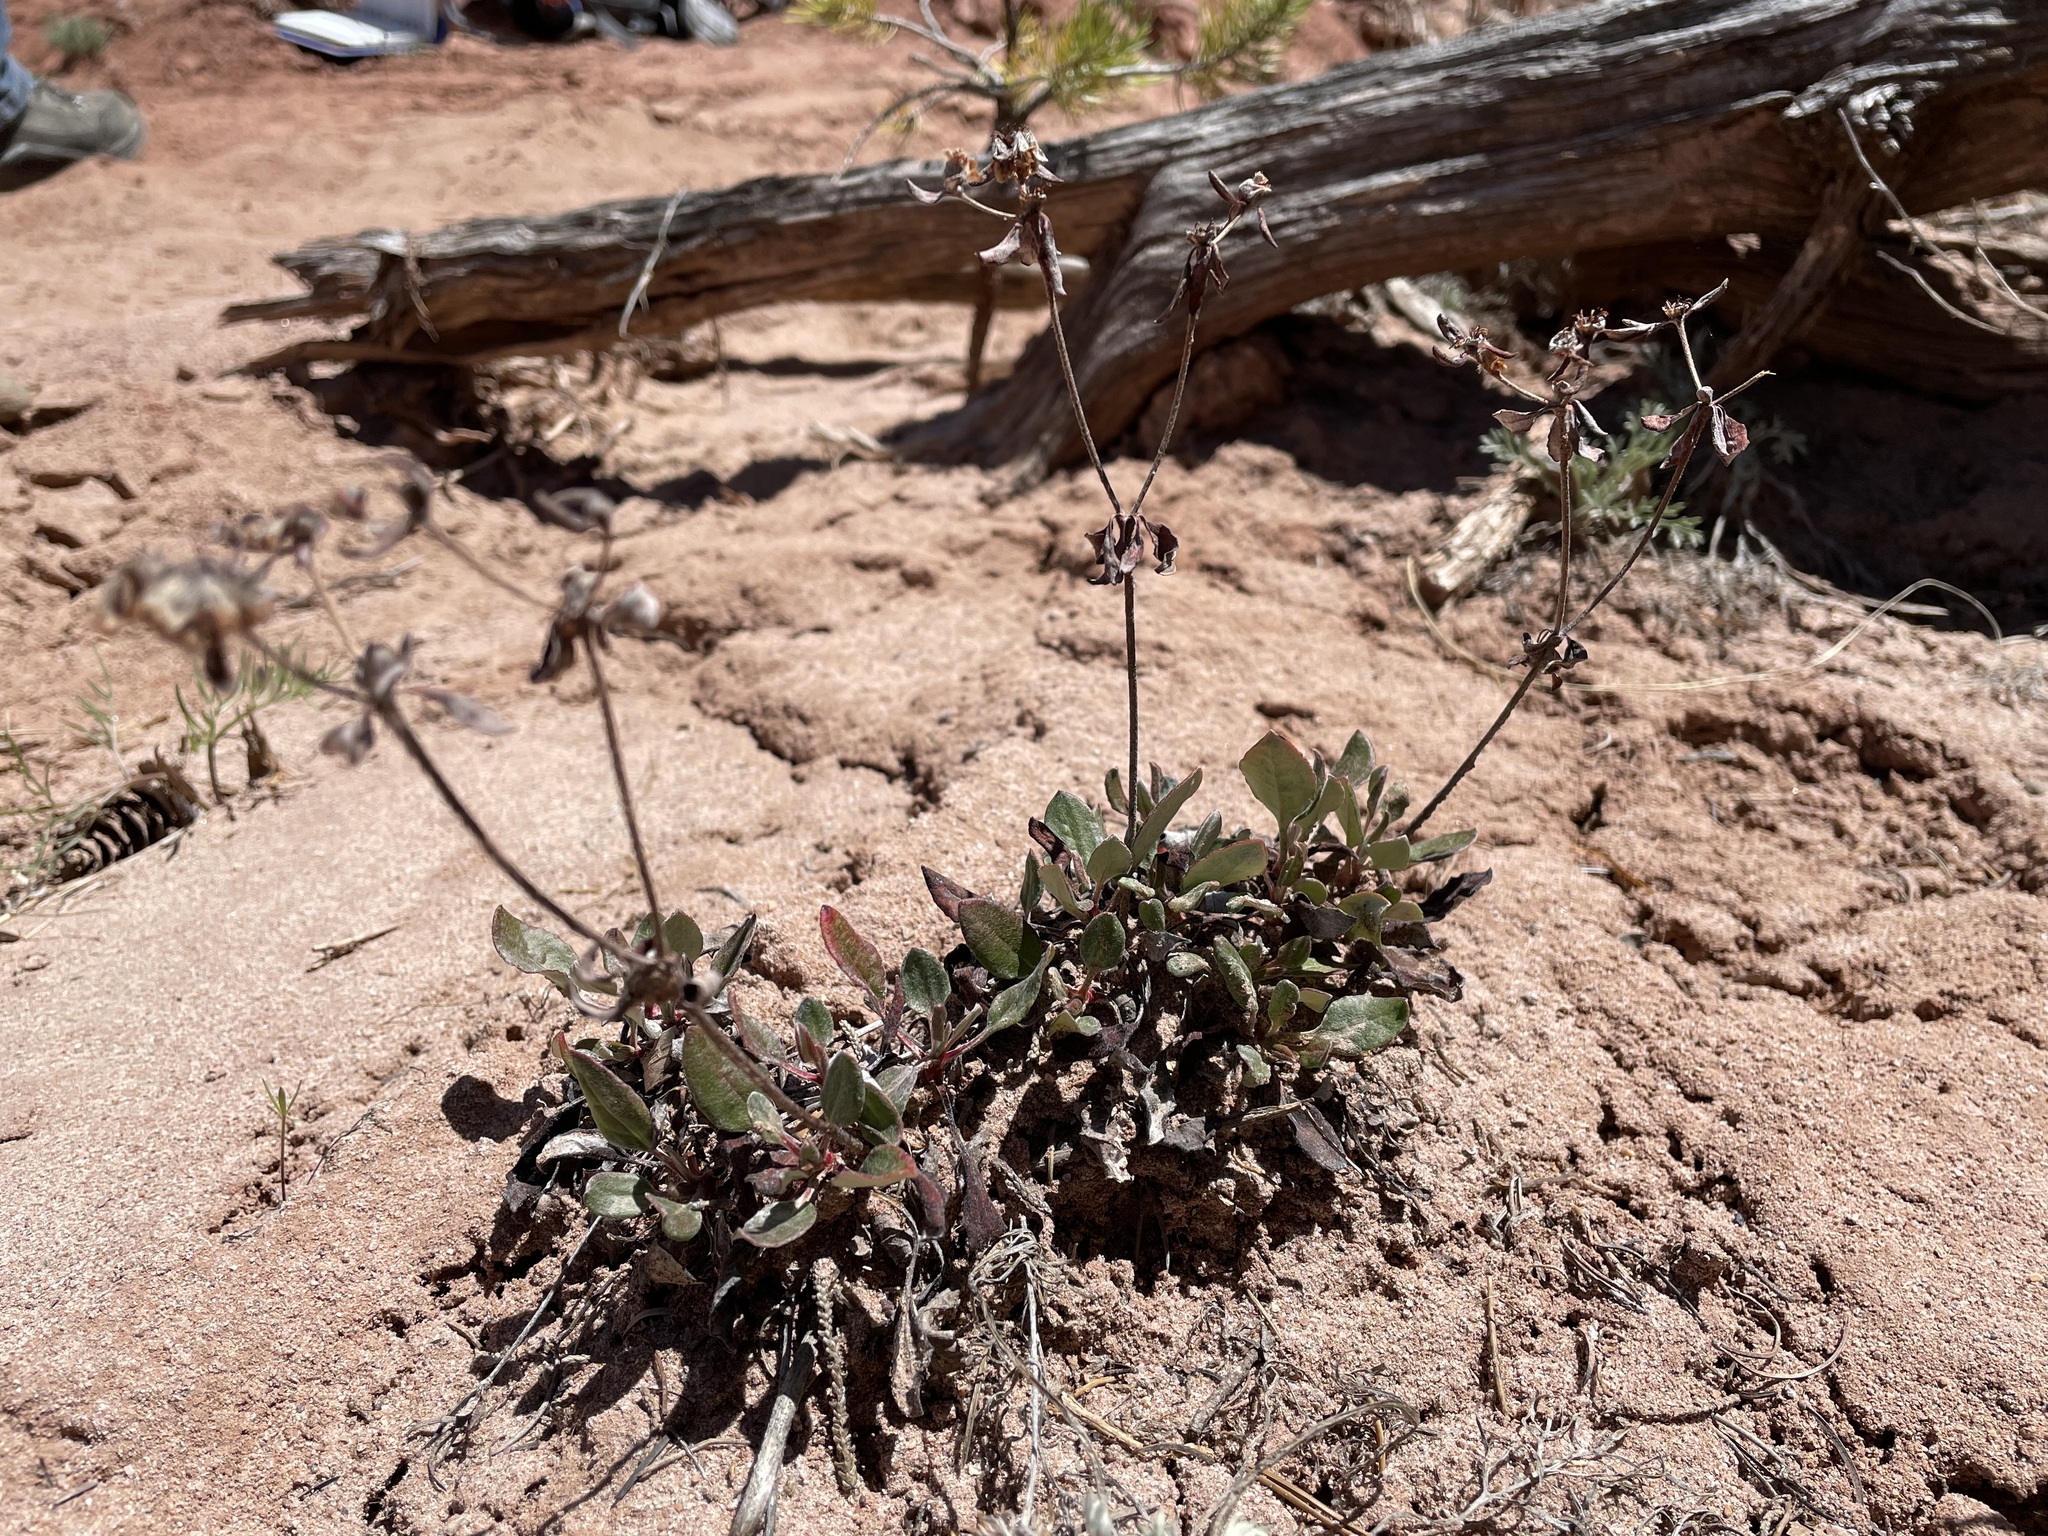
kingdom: Plantae
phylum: Tracheophyta
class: Magnoliopsida
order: Caryophyllales
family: Polygonaceae
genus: Eriogonum
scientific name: Eriogonum jamesii
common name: Antelope-sage
